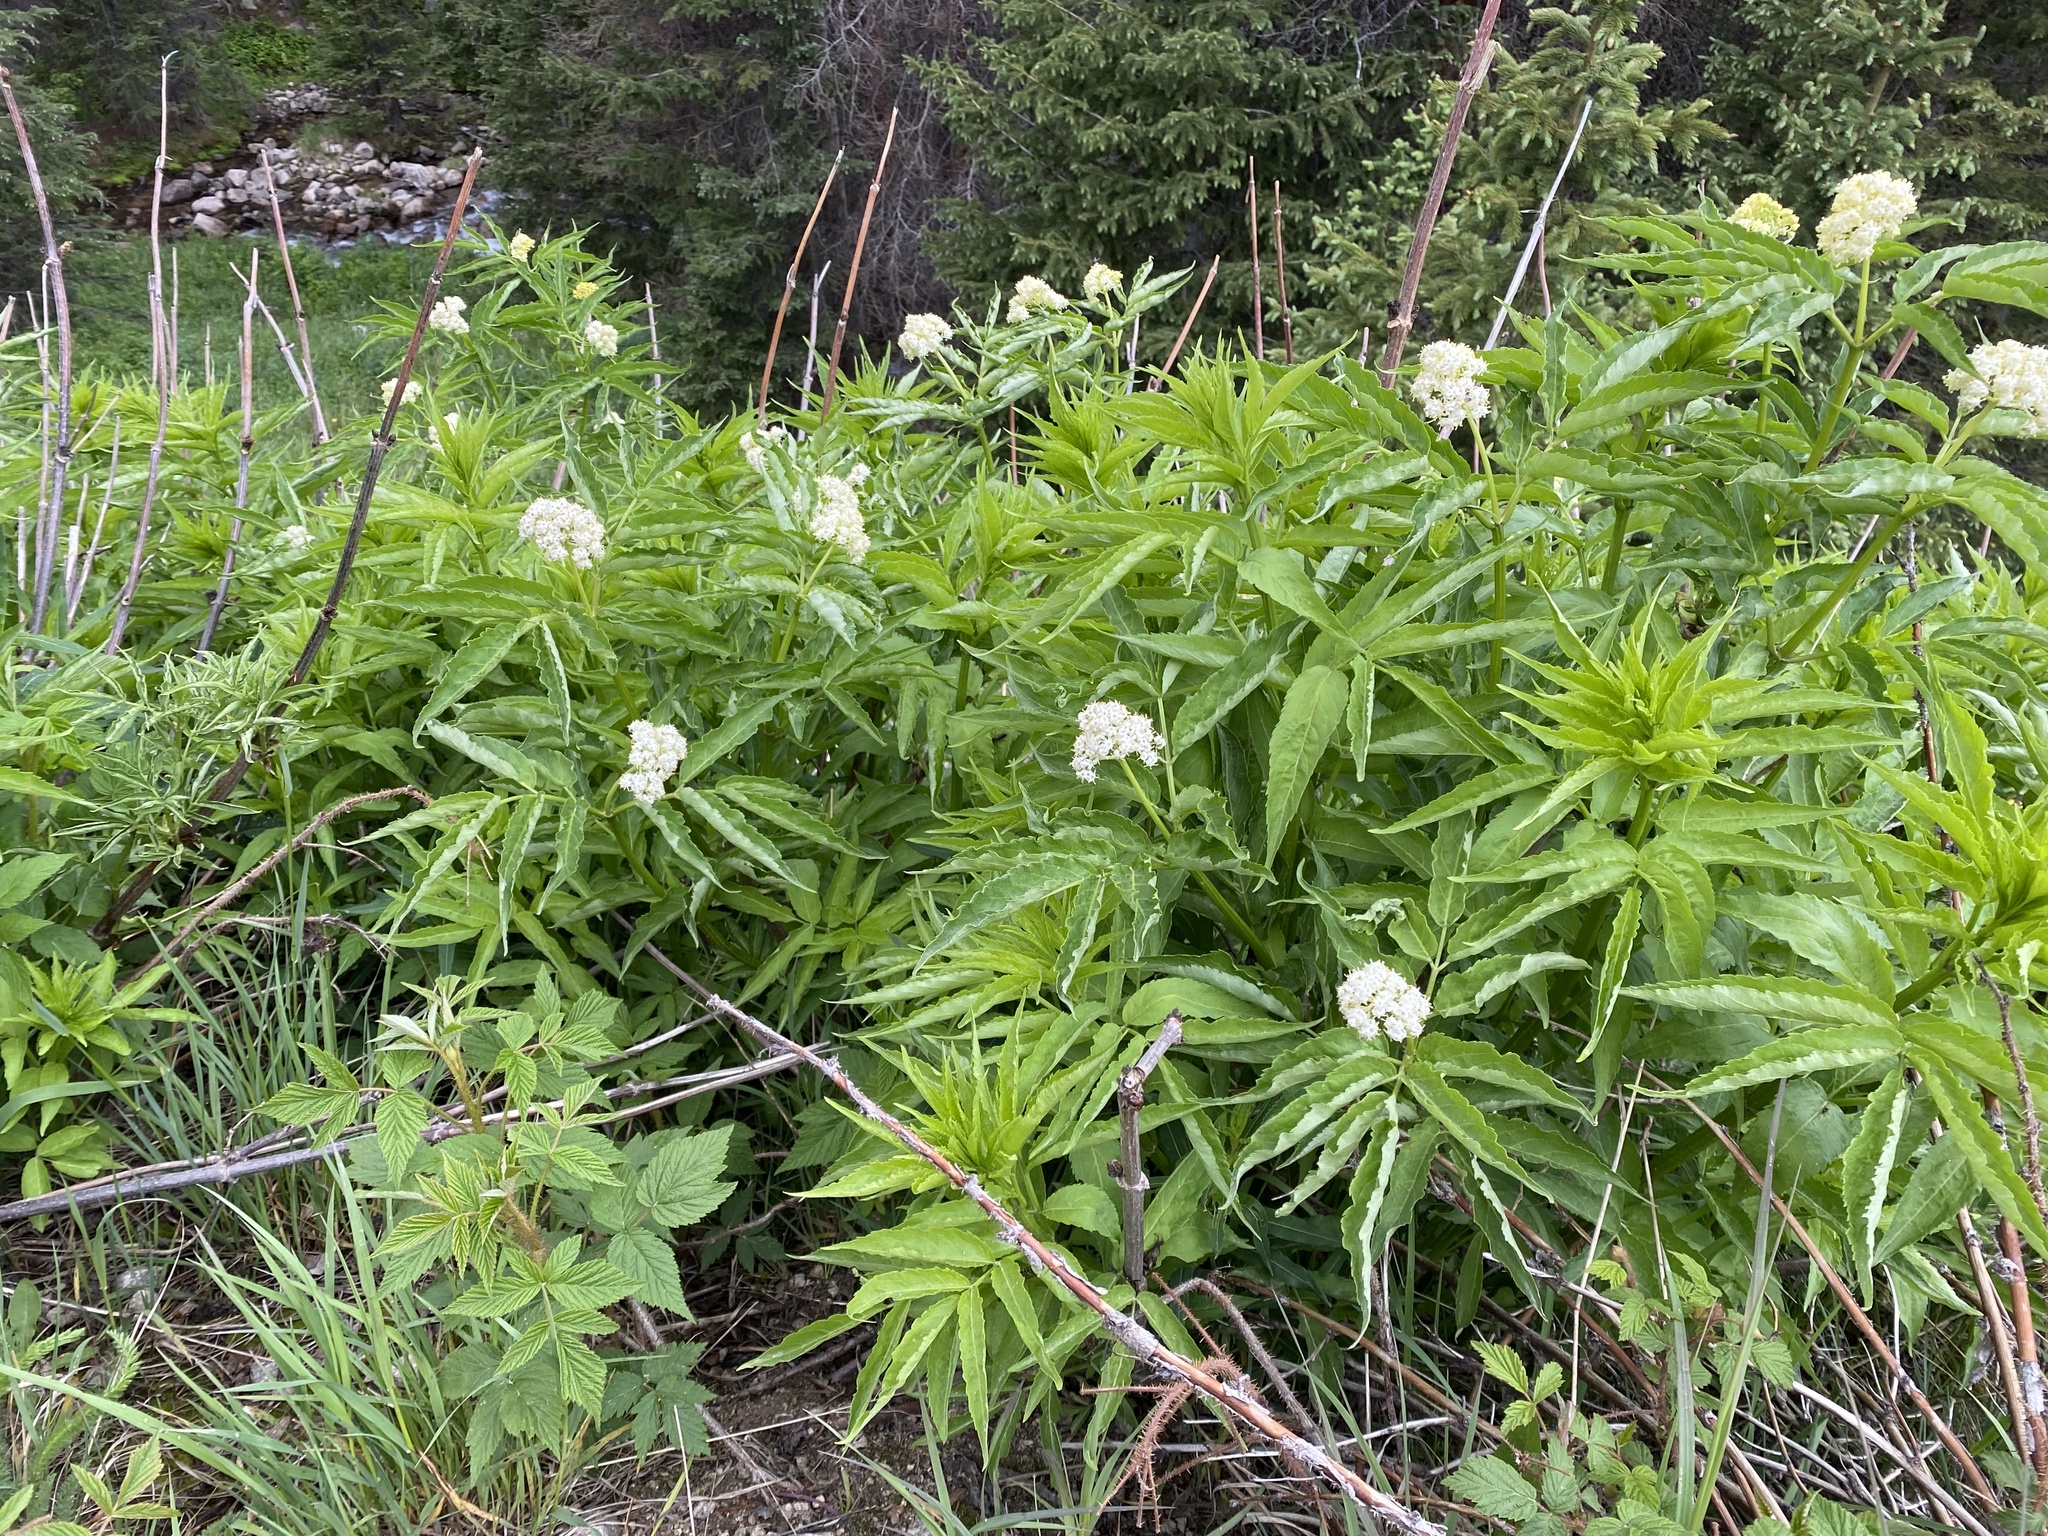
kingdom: Plantae
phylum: Tracheophyta
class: Magnoliopsida
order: Dipsacales
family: Viburnaceae
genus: Sambucus
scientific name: Sambucus racemosa
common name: Red-berried elder
